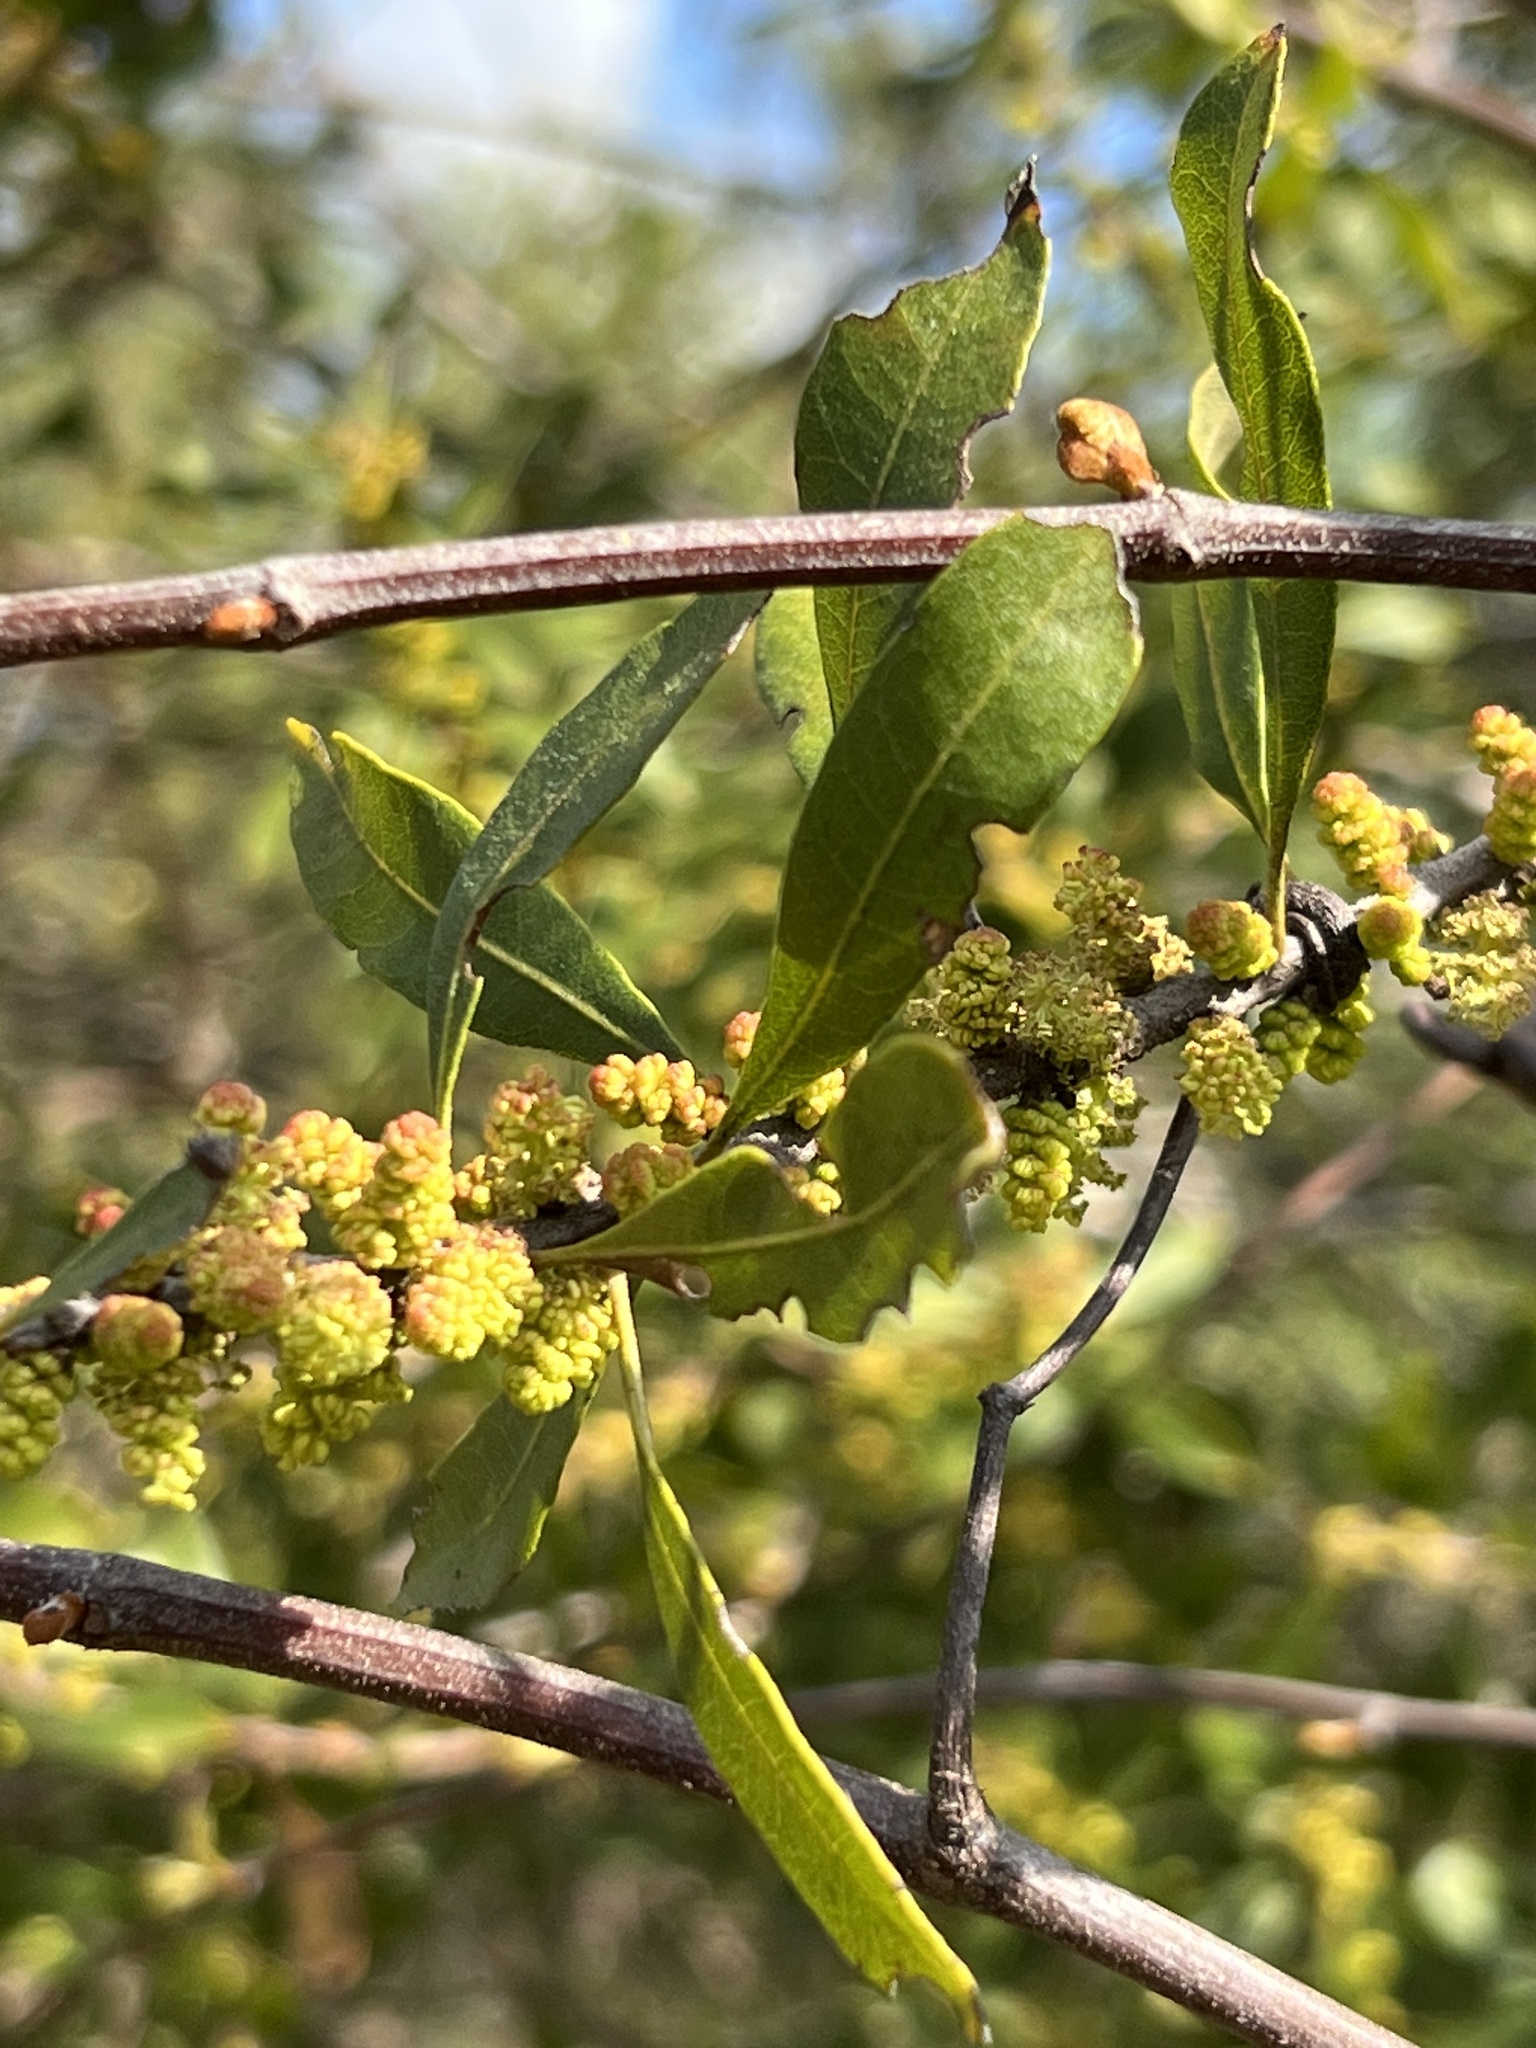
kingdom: Plantae
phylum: Tracheophyta
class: Magnoliopsida
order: Fagales
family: Myricaceae
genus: Morella
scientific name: Morella cerifera
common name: Wax myrtle
